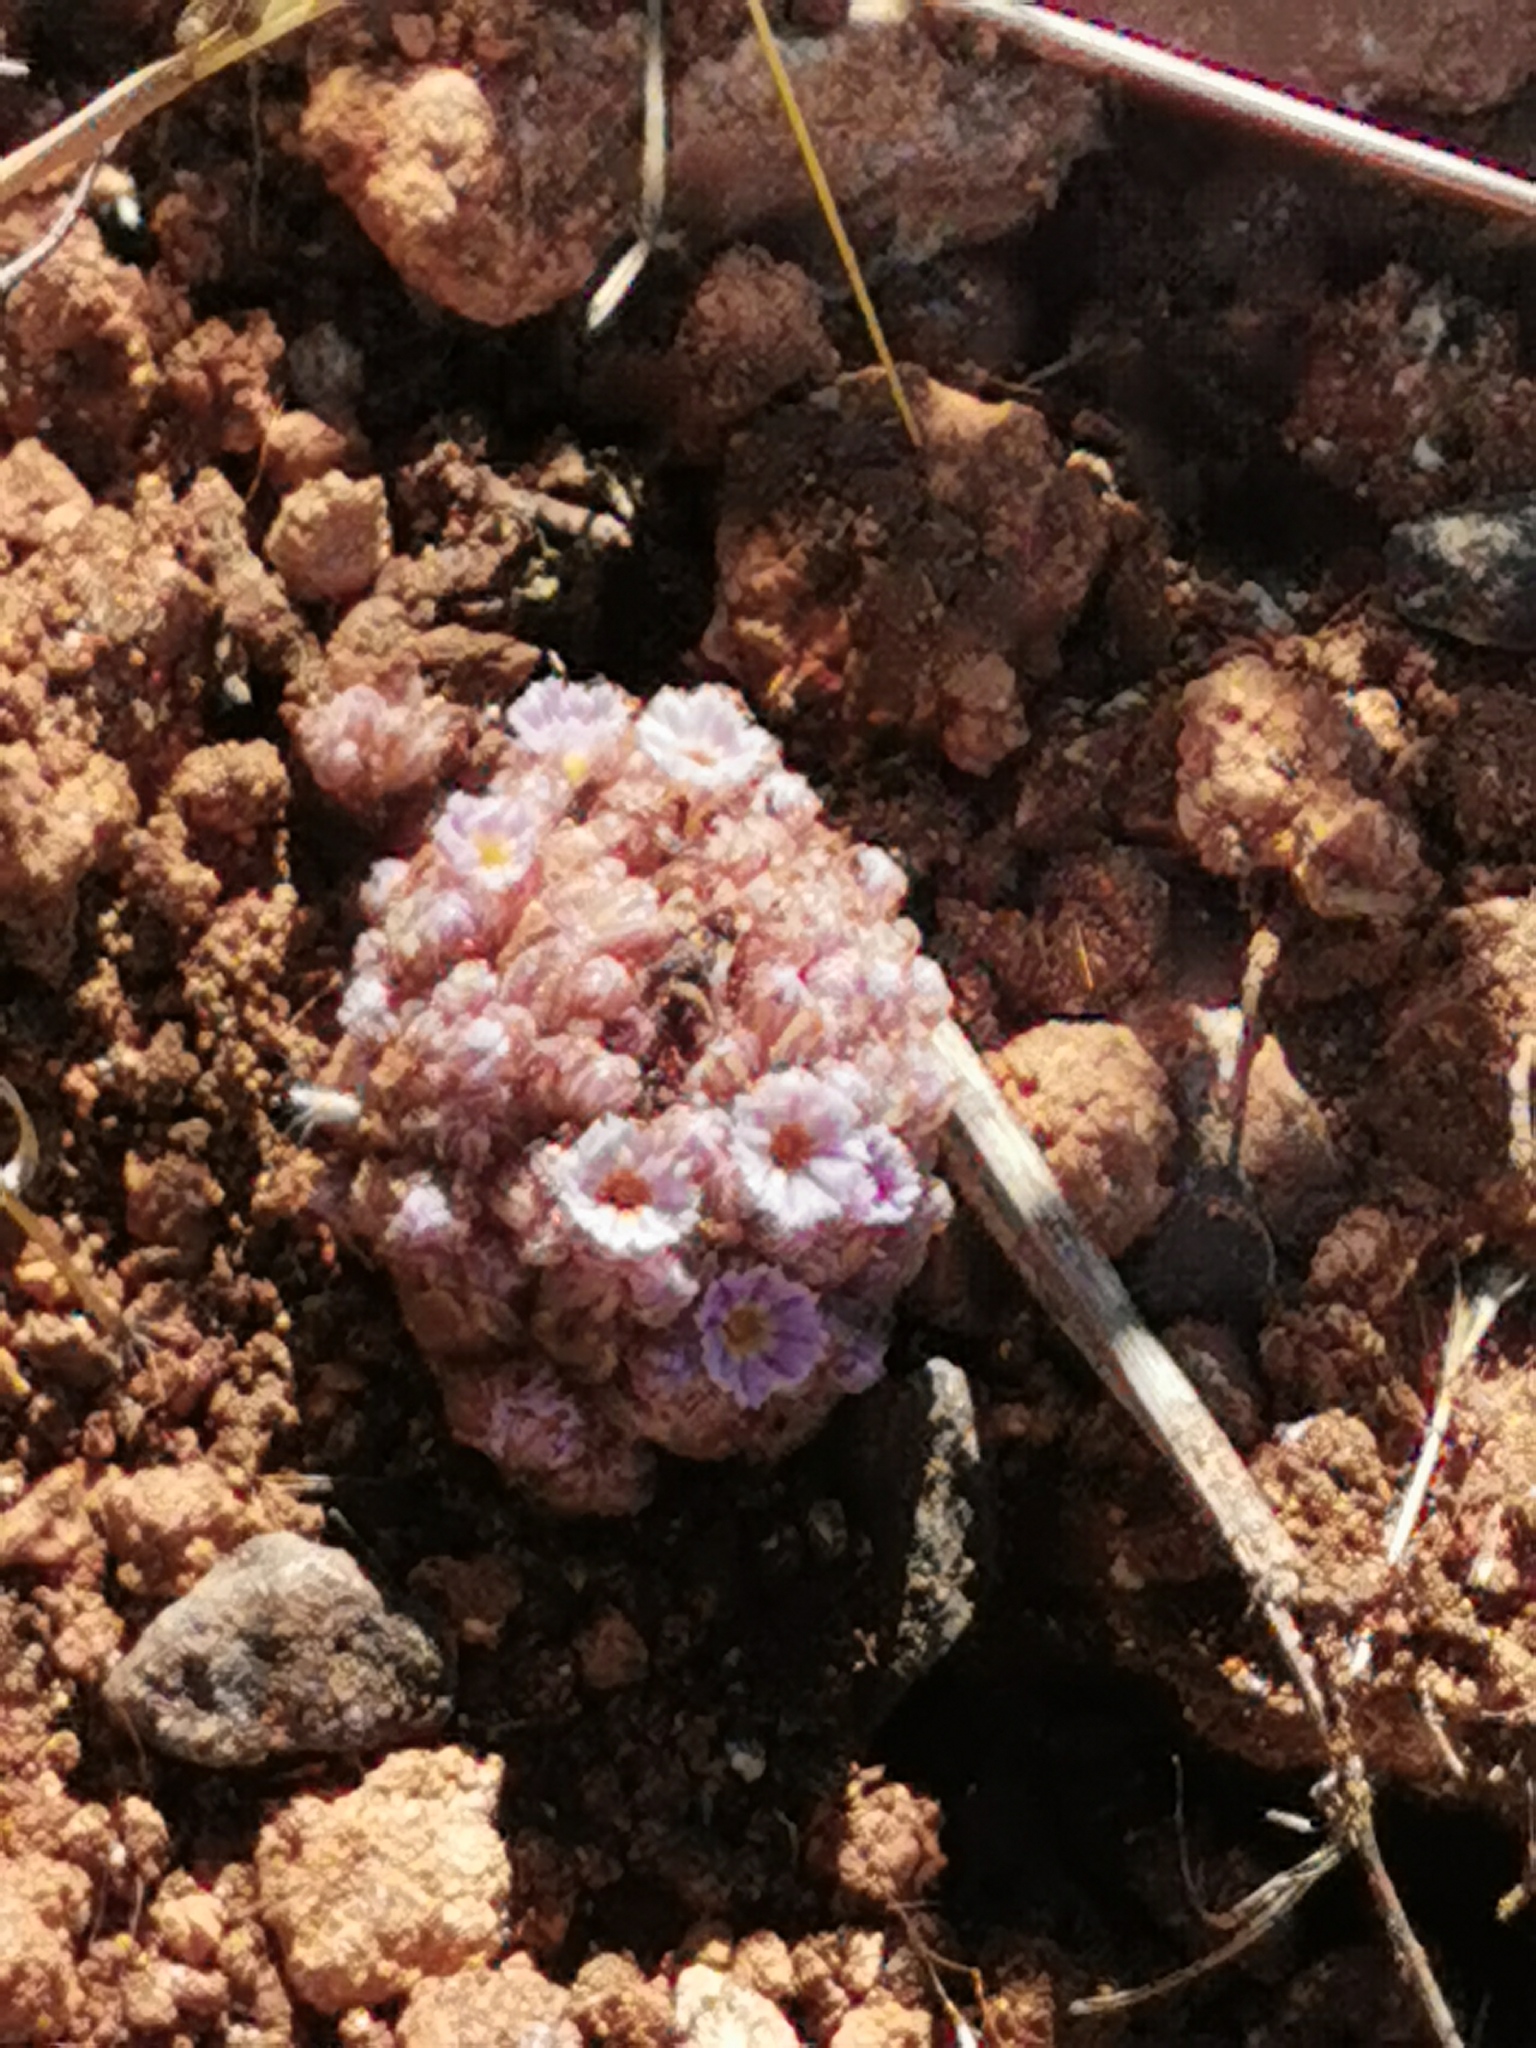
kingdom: Plantae
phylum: Tracheophyta
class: Magnoliopsida
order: Boraginales
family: Lennoaceae
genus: Lennoa
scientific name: Lennoa madreporoides
